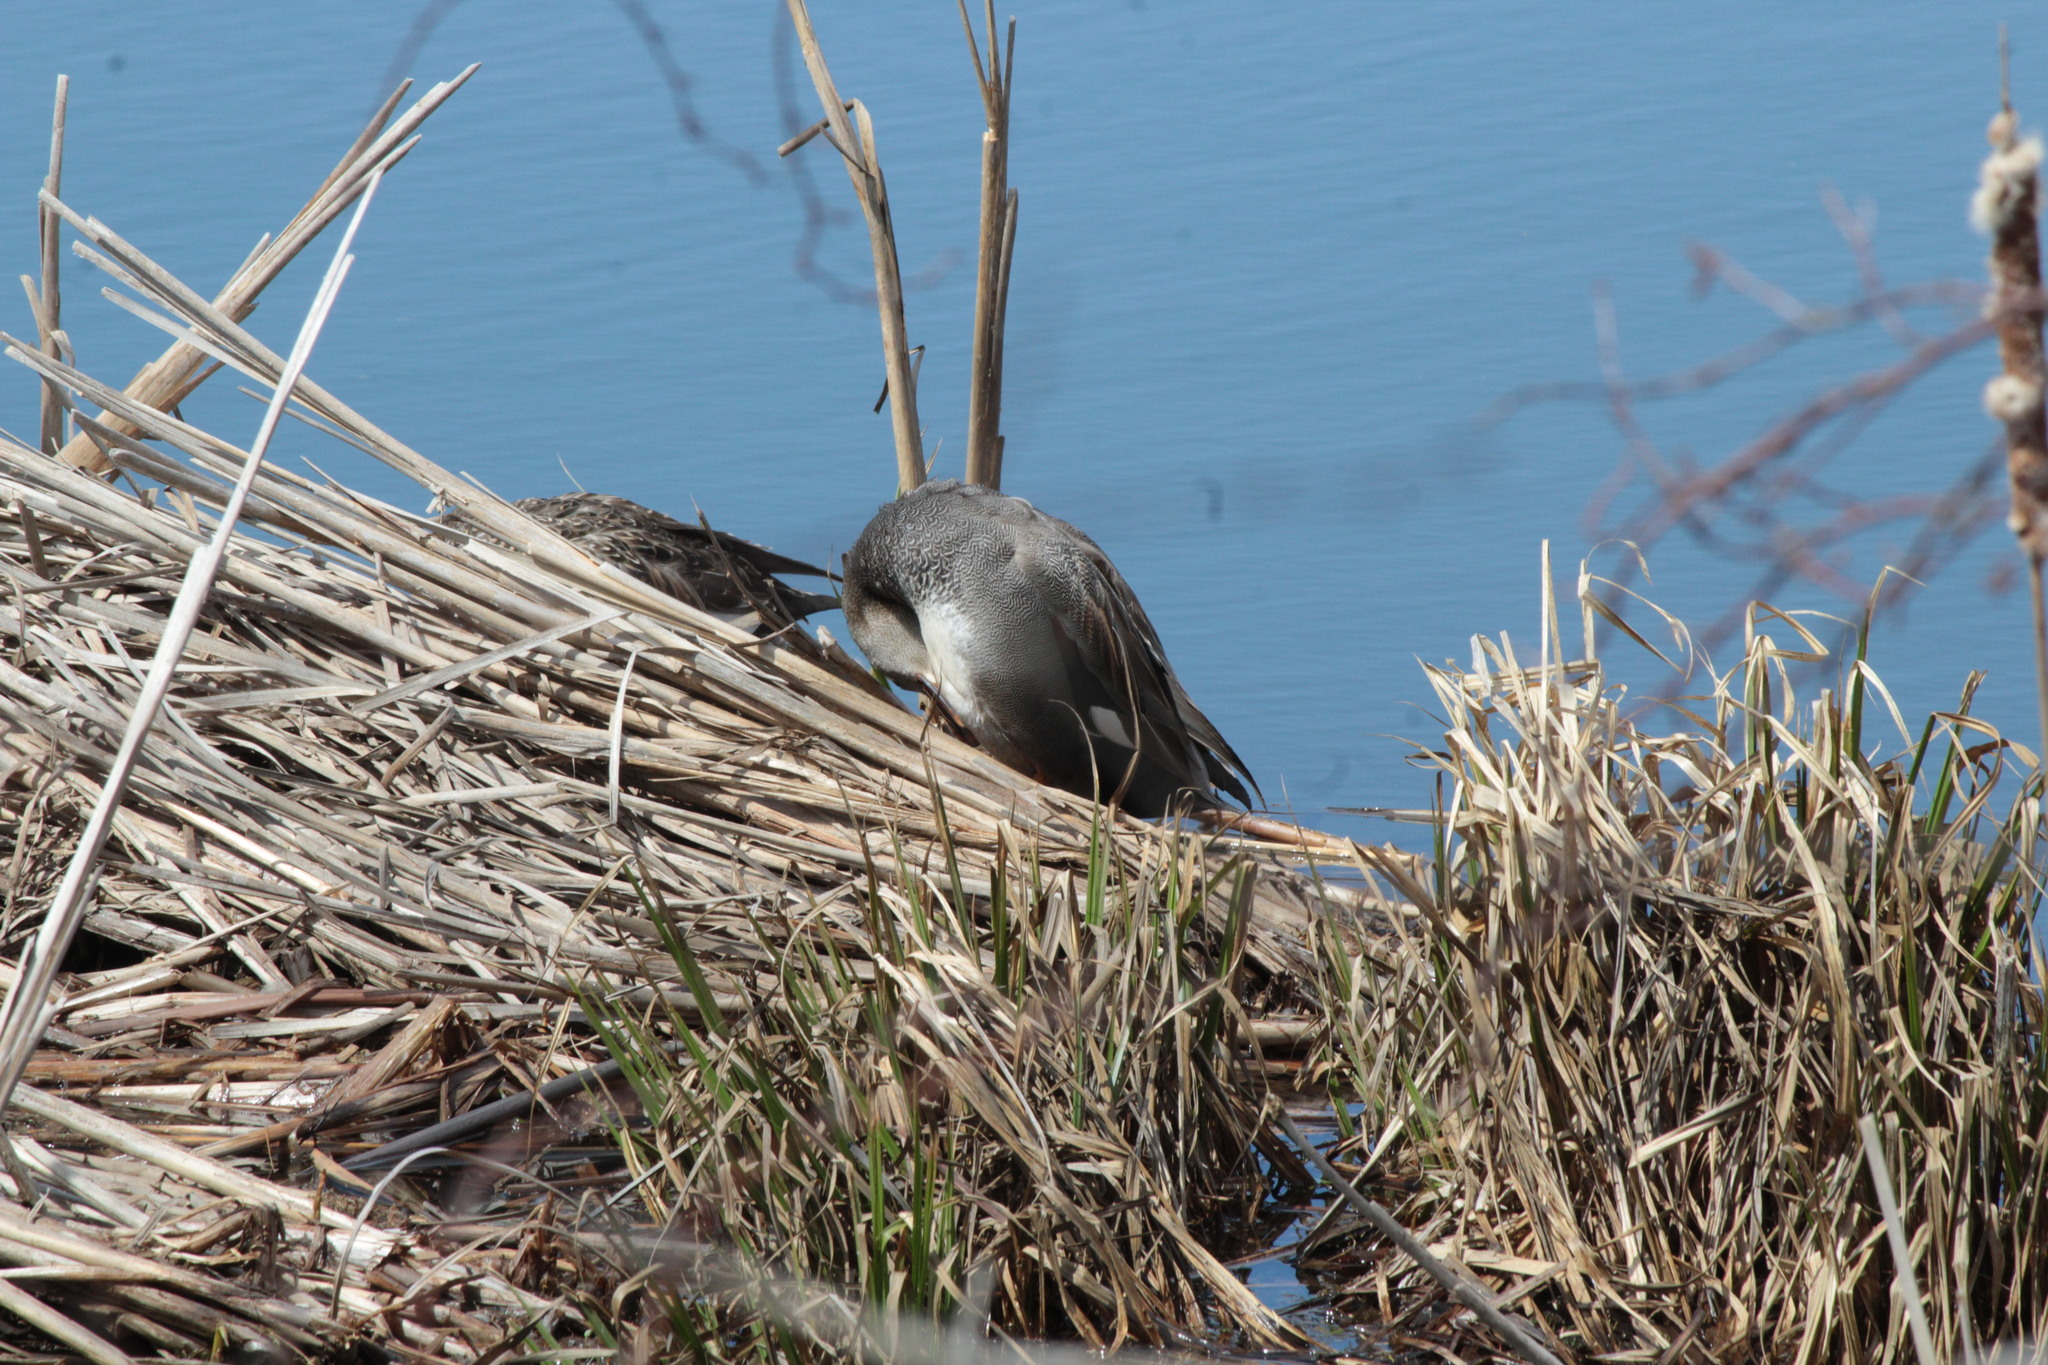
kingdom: Animalia
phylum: Chordata
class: Aves
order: Anseriformes
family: Anatidae
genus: Mareca
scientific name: Mareca strepera
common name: Gadwall
